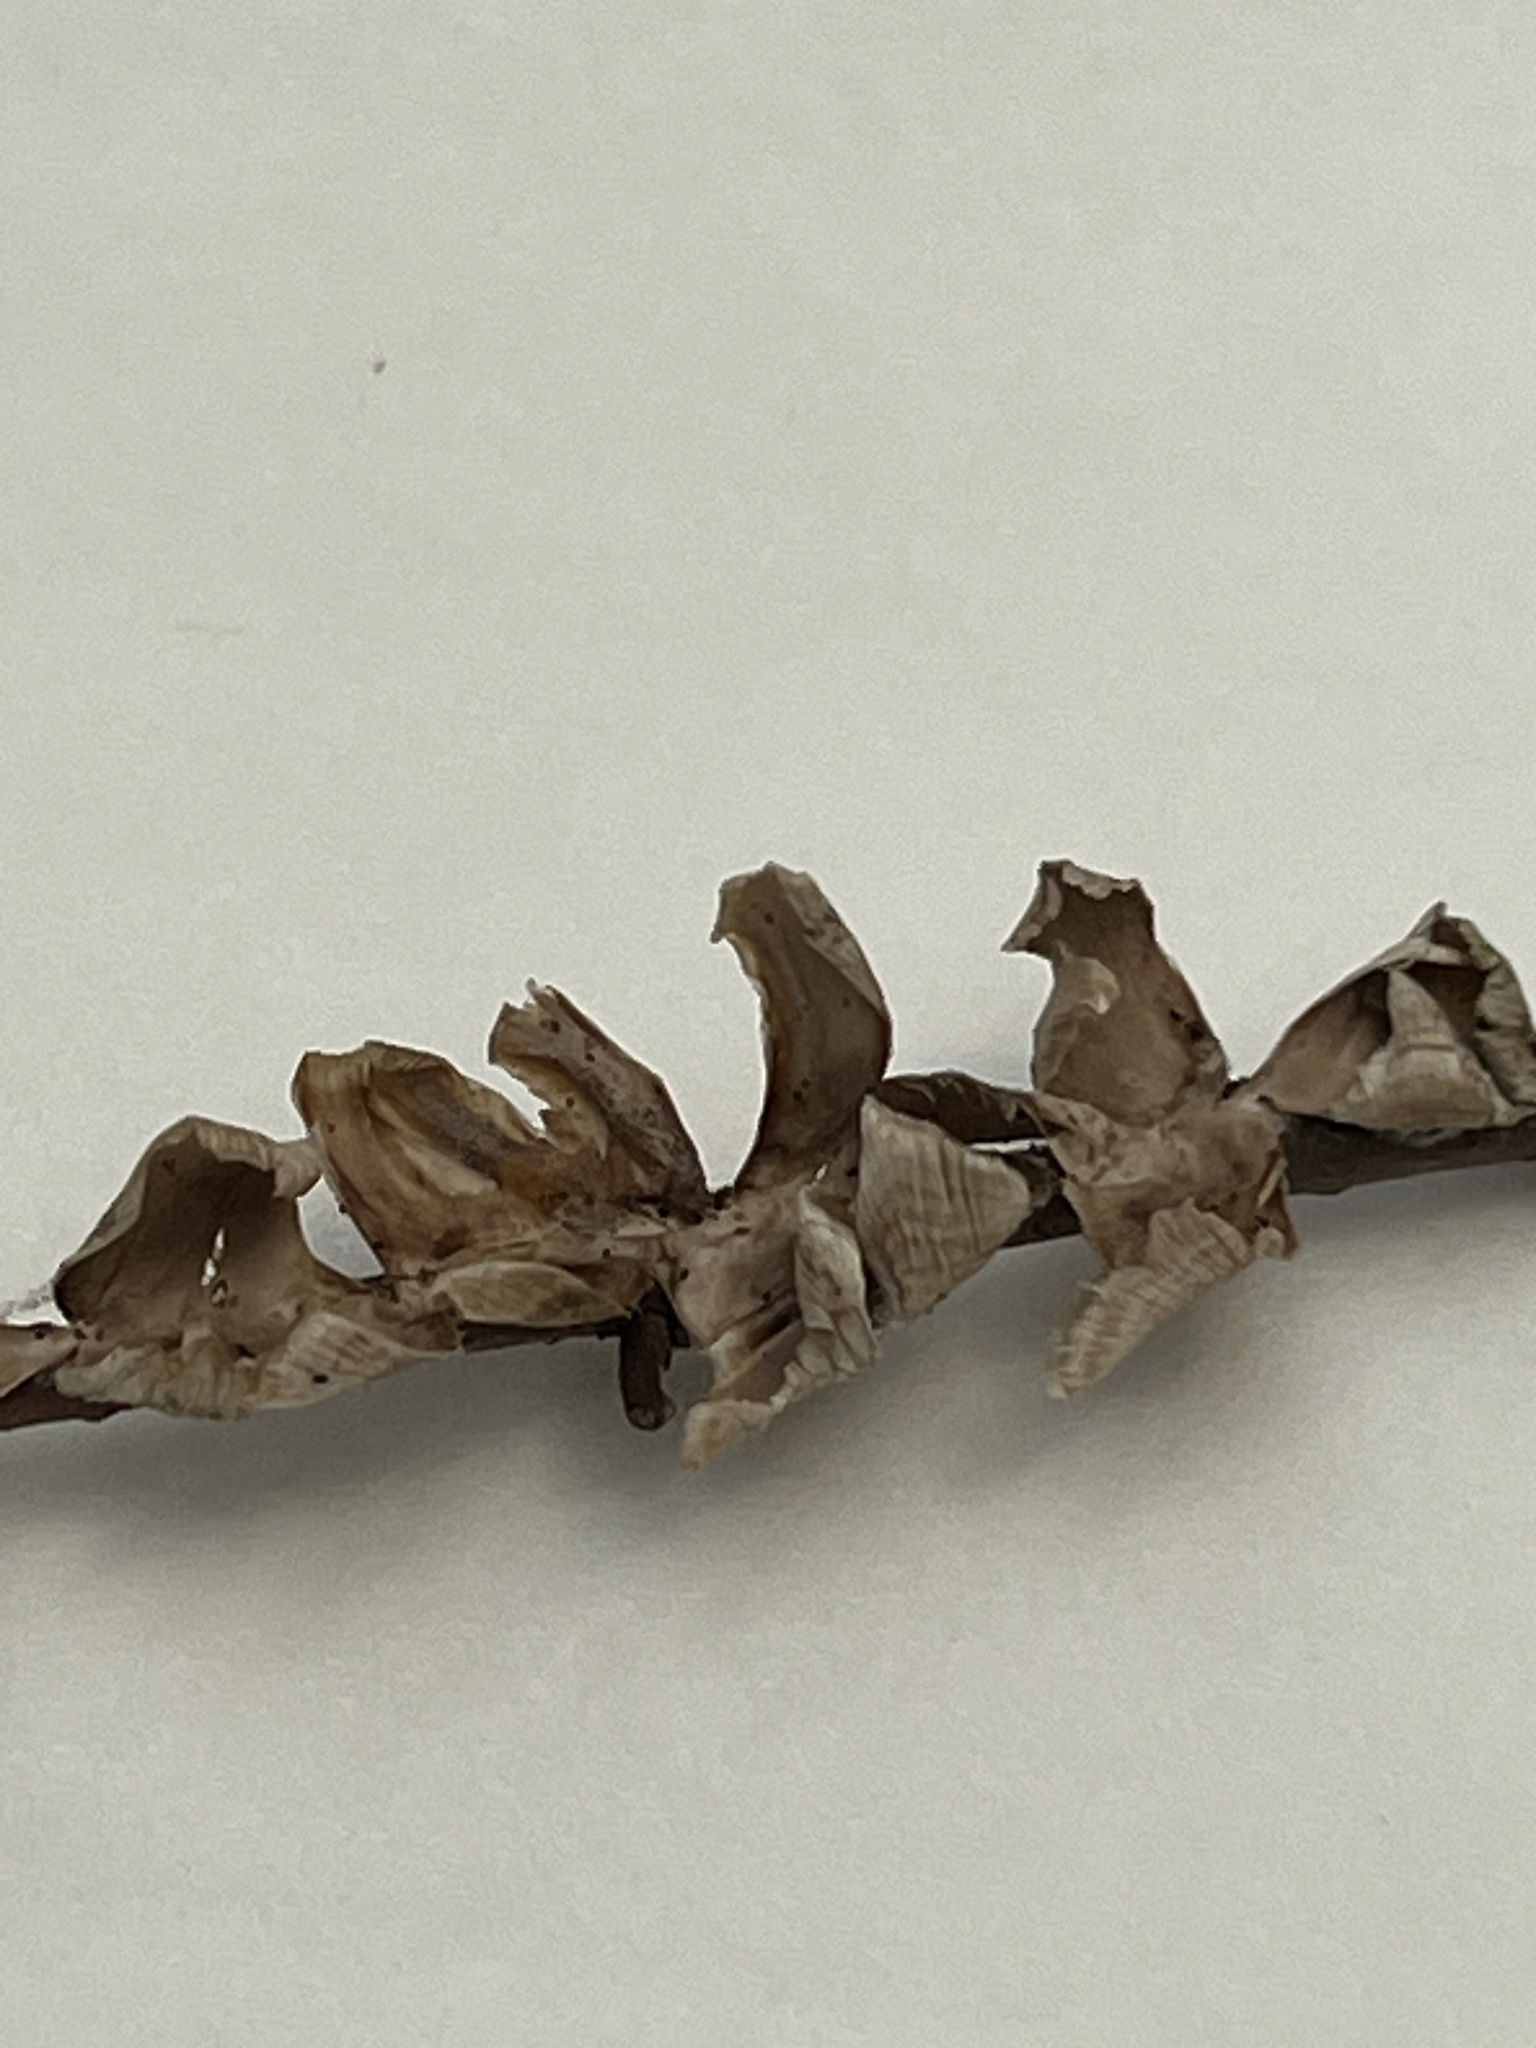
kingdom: Fungi
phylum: Basidiomycota
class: Agaricomycetes
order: Russulales
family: Stereaceae
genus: Stereum
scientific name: Stereum striatum
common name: Silky parchment
